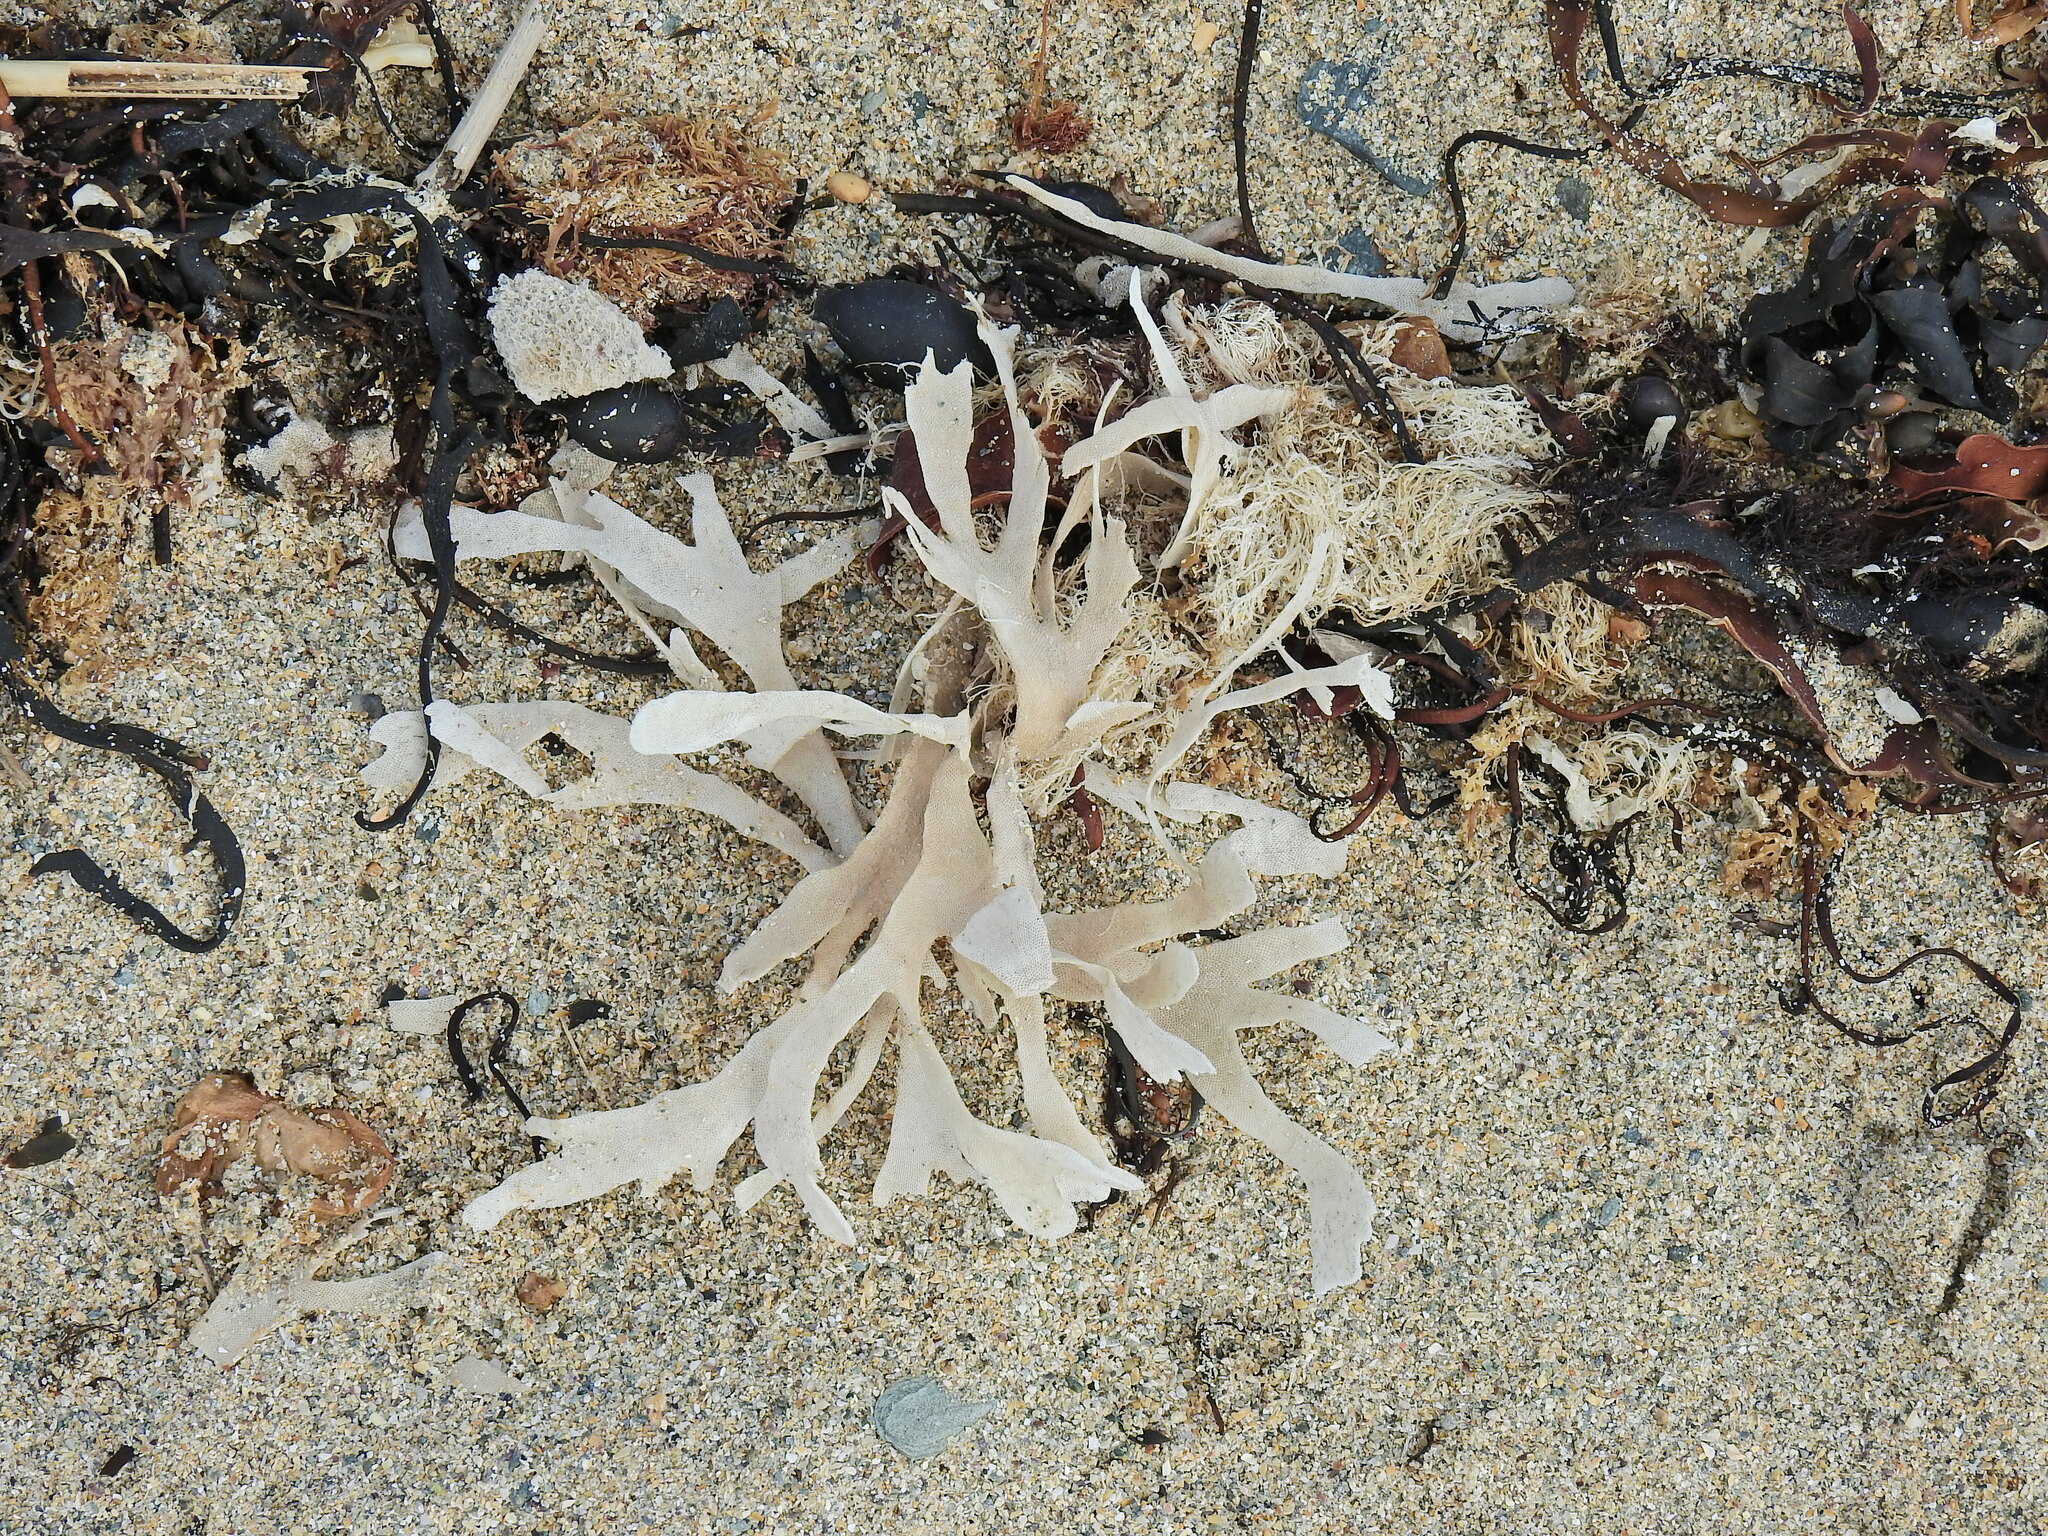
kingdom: Animalia
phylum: Bryozoa
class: Gymnolaemata
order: Cheilostomatida
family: Flustridae
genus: Flustra
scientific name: Flustra foliacea
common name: Hornwrack
